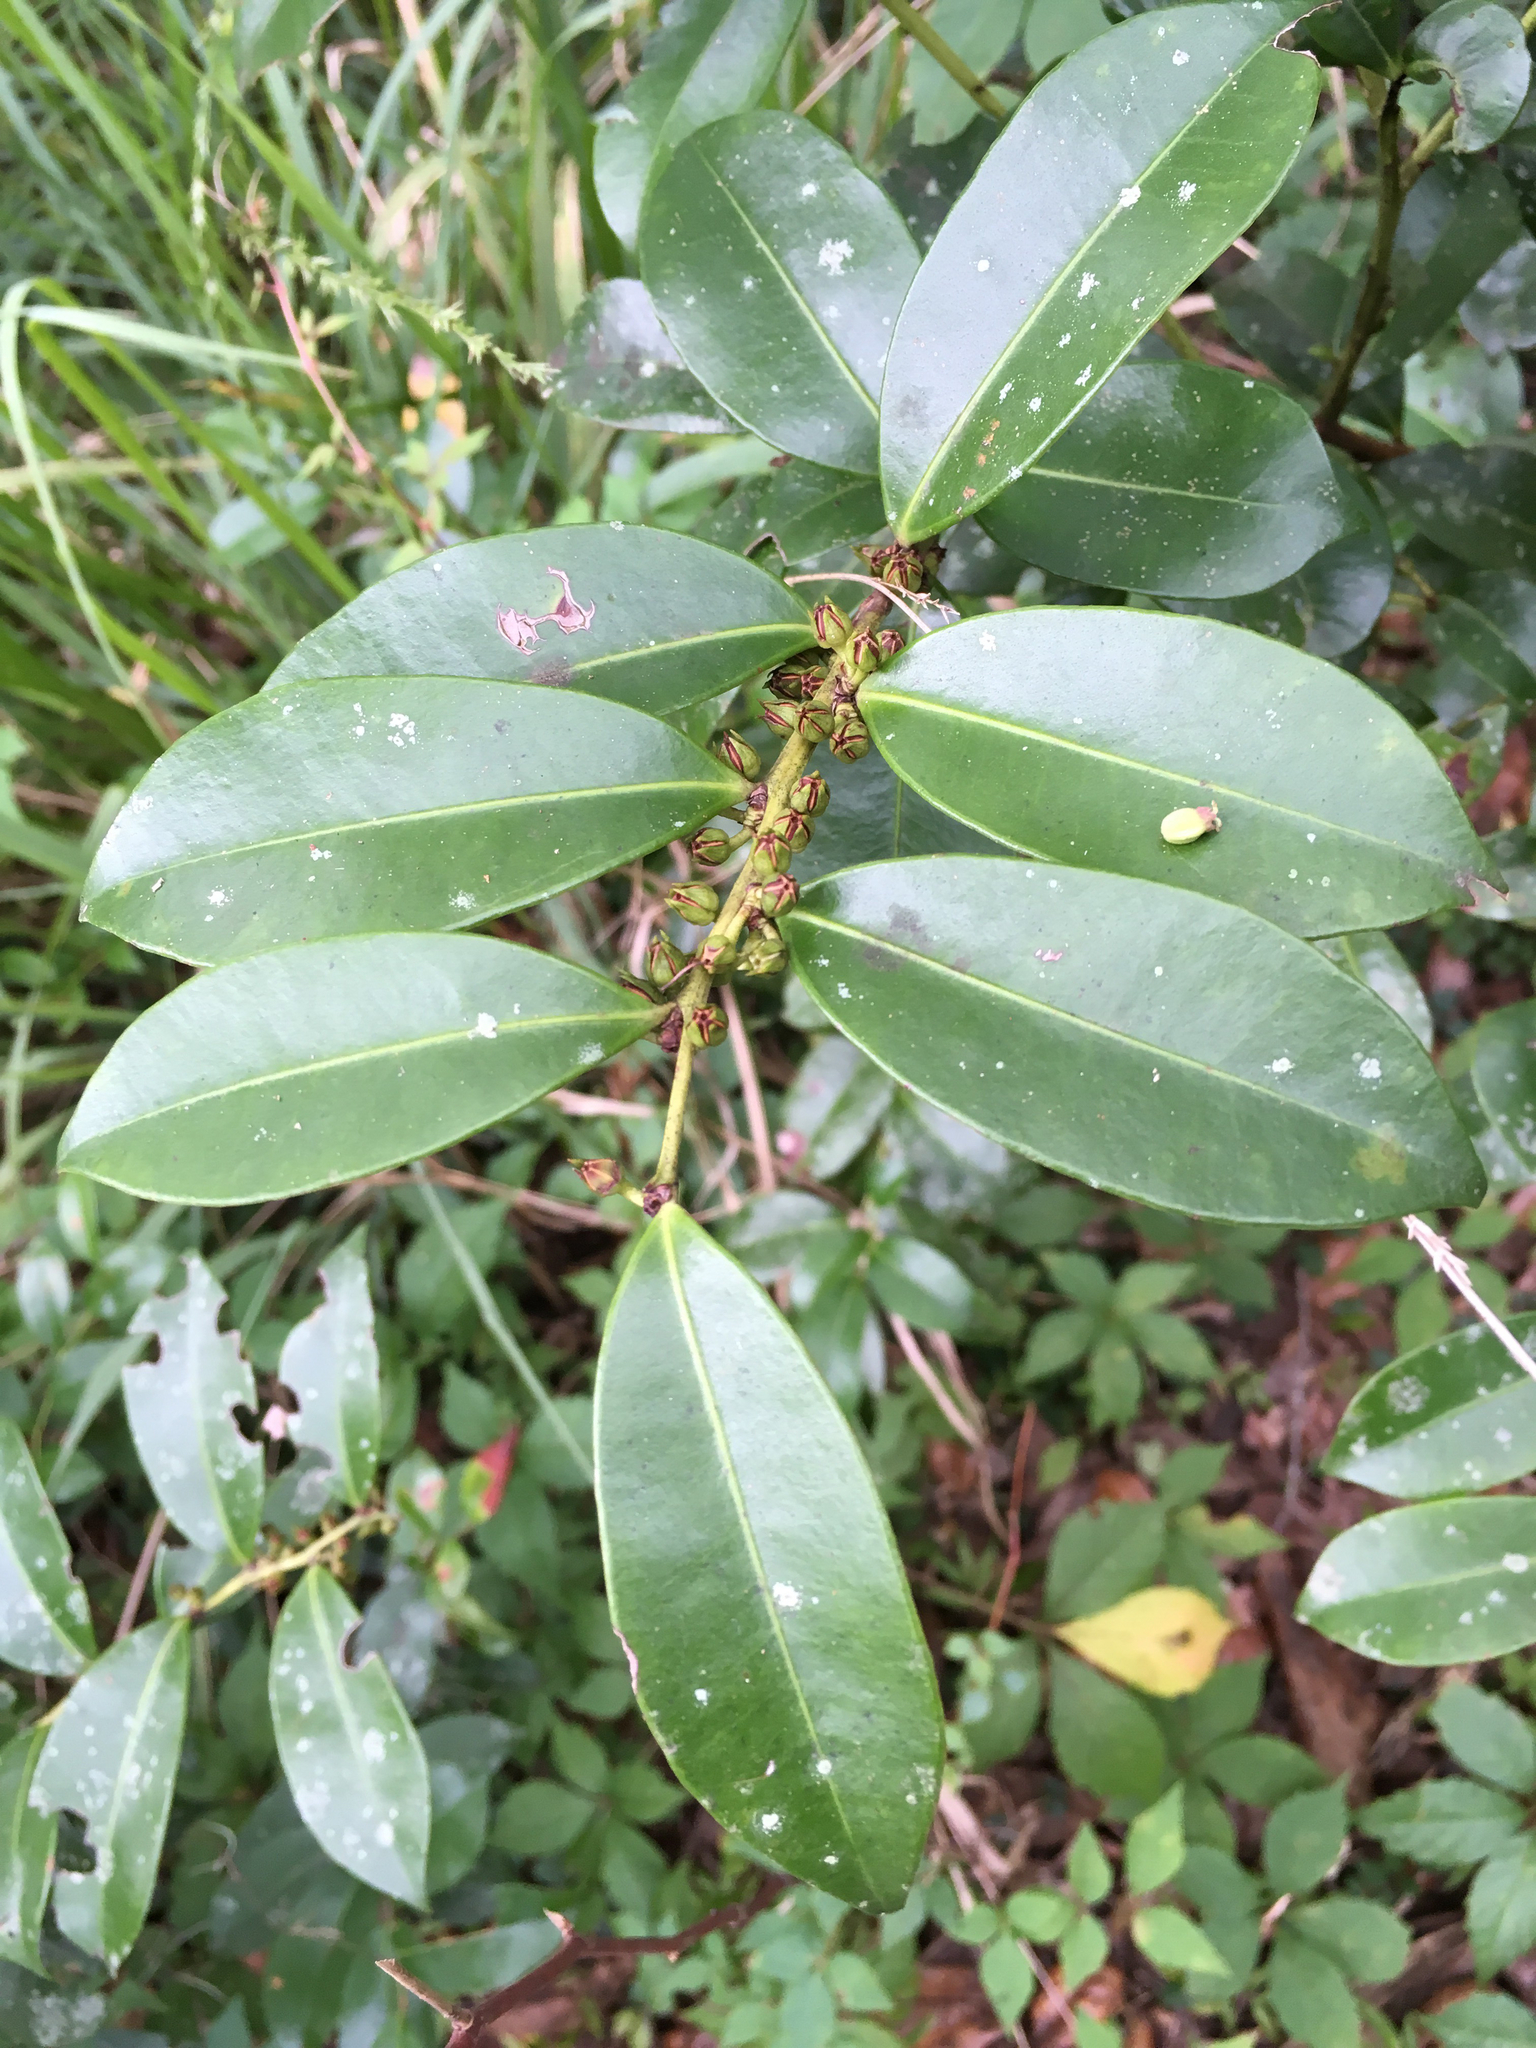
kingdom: Plantae
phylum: Tracheophyta
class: Magnoliopsida
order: Ericales
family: Ericaceae
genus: Lyonia
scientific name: Lyonia lucida
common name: Fetterbush
